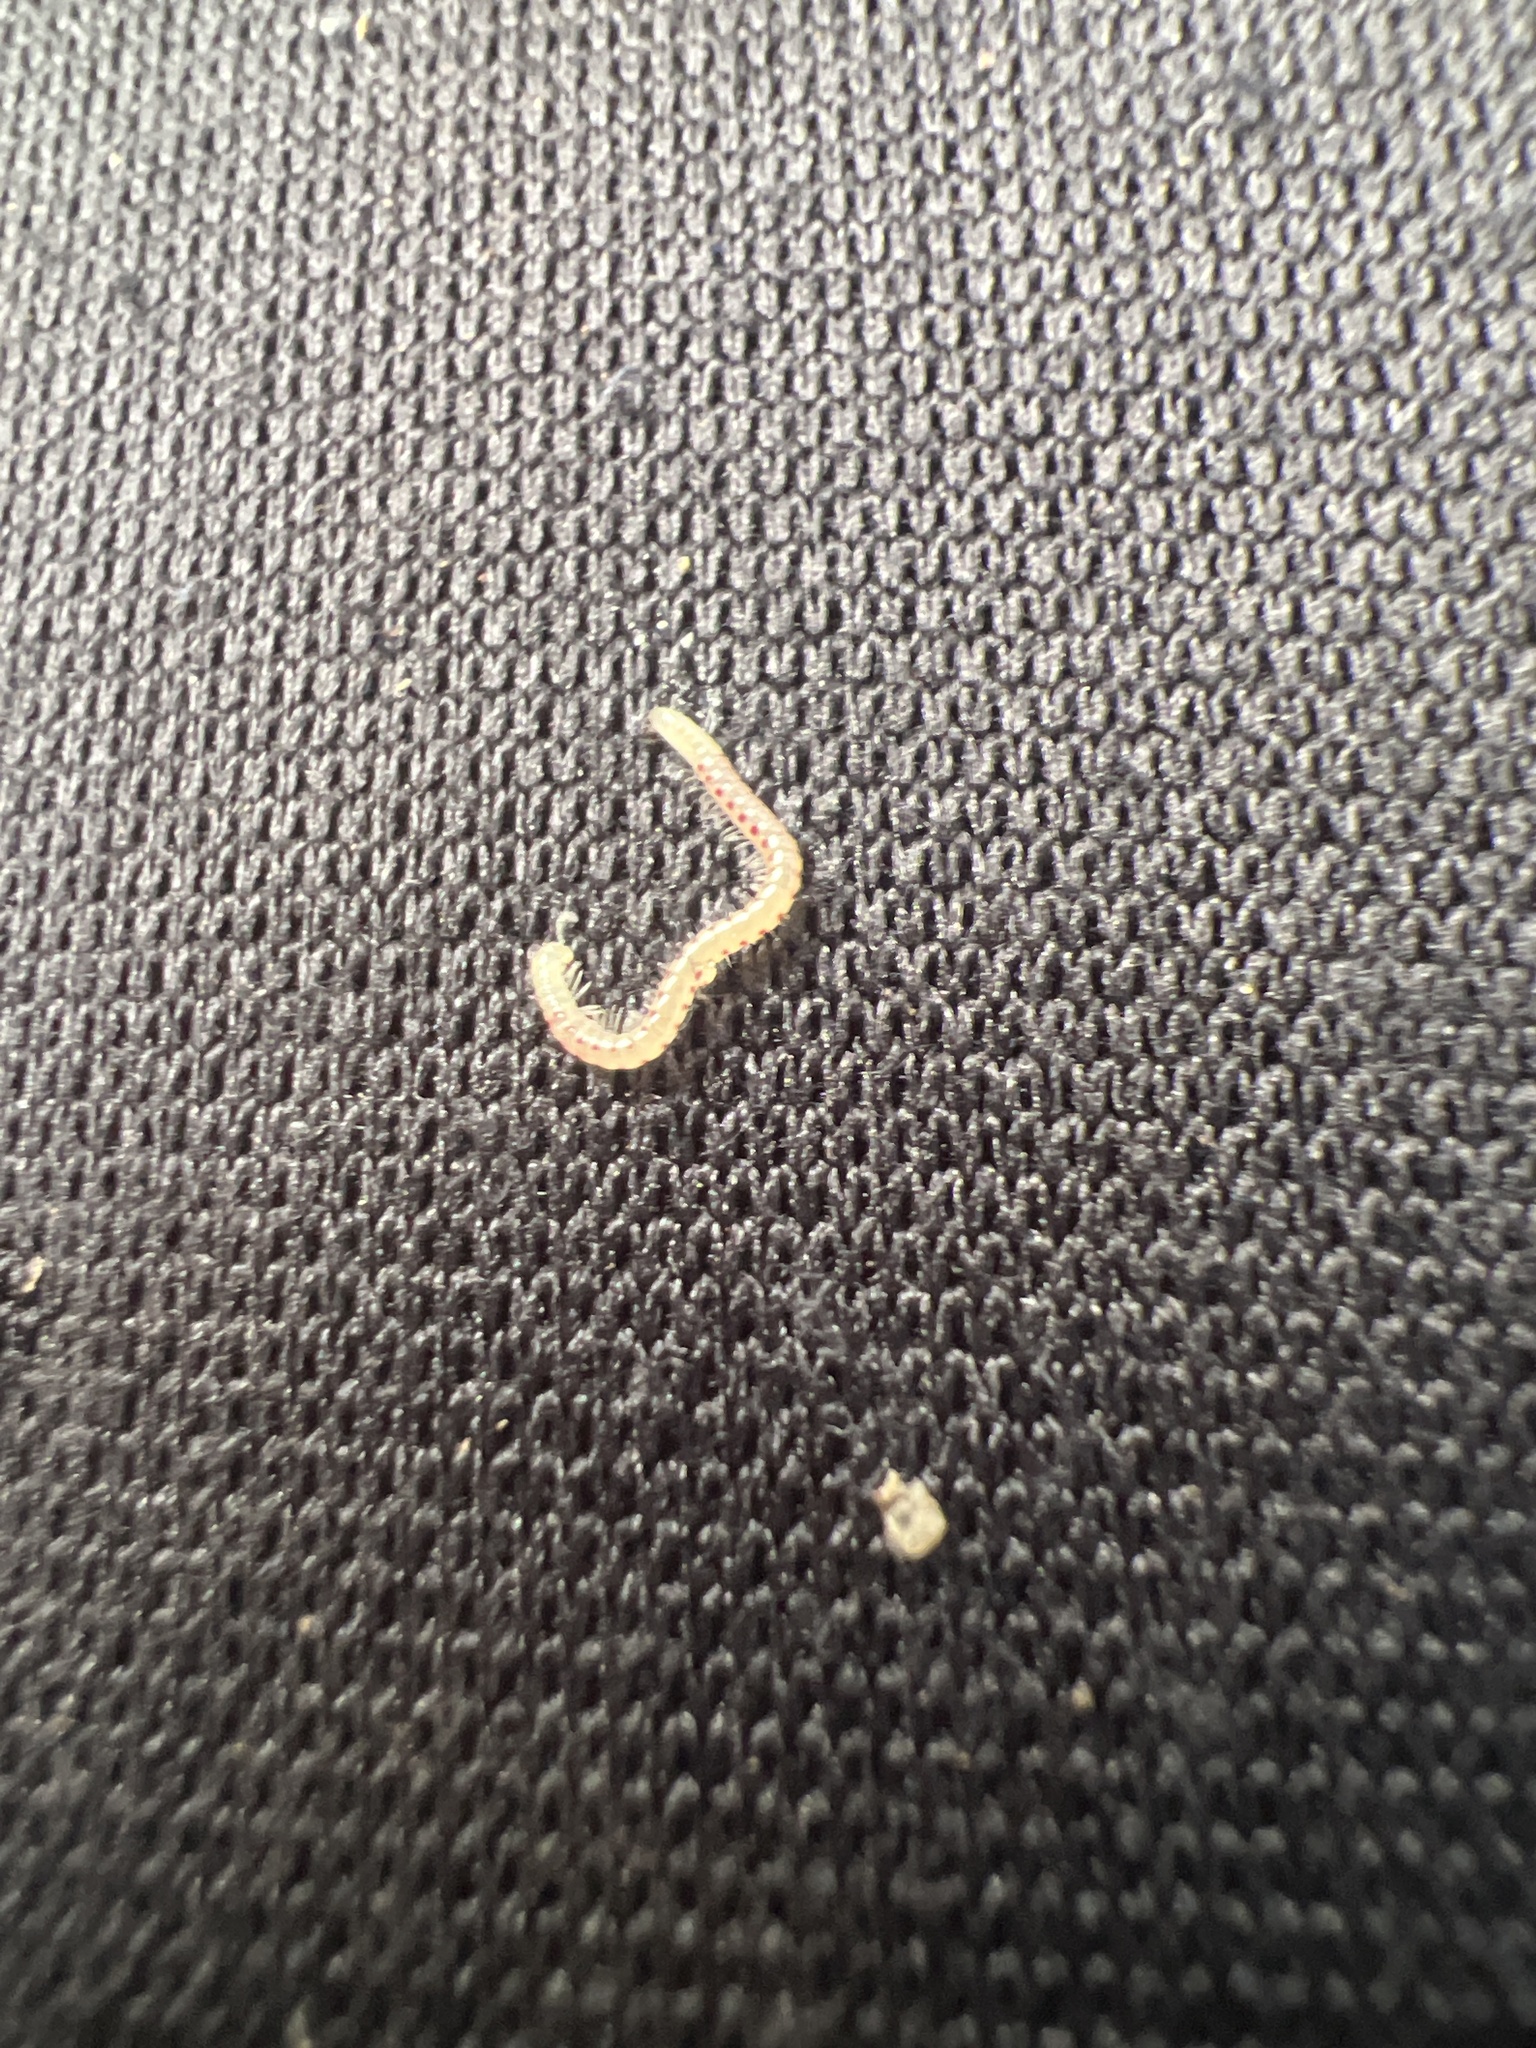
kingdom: Animalia
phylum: Arthropoda
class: Diplopoda
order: Julida
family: Blaniulidae
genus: Blaniulus
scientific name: Blaniulus guttulatus
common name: Spotted snake millipede
